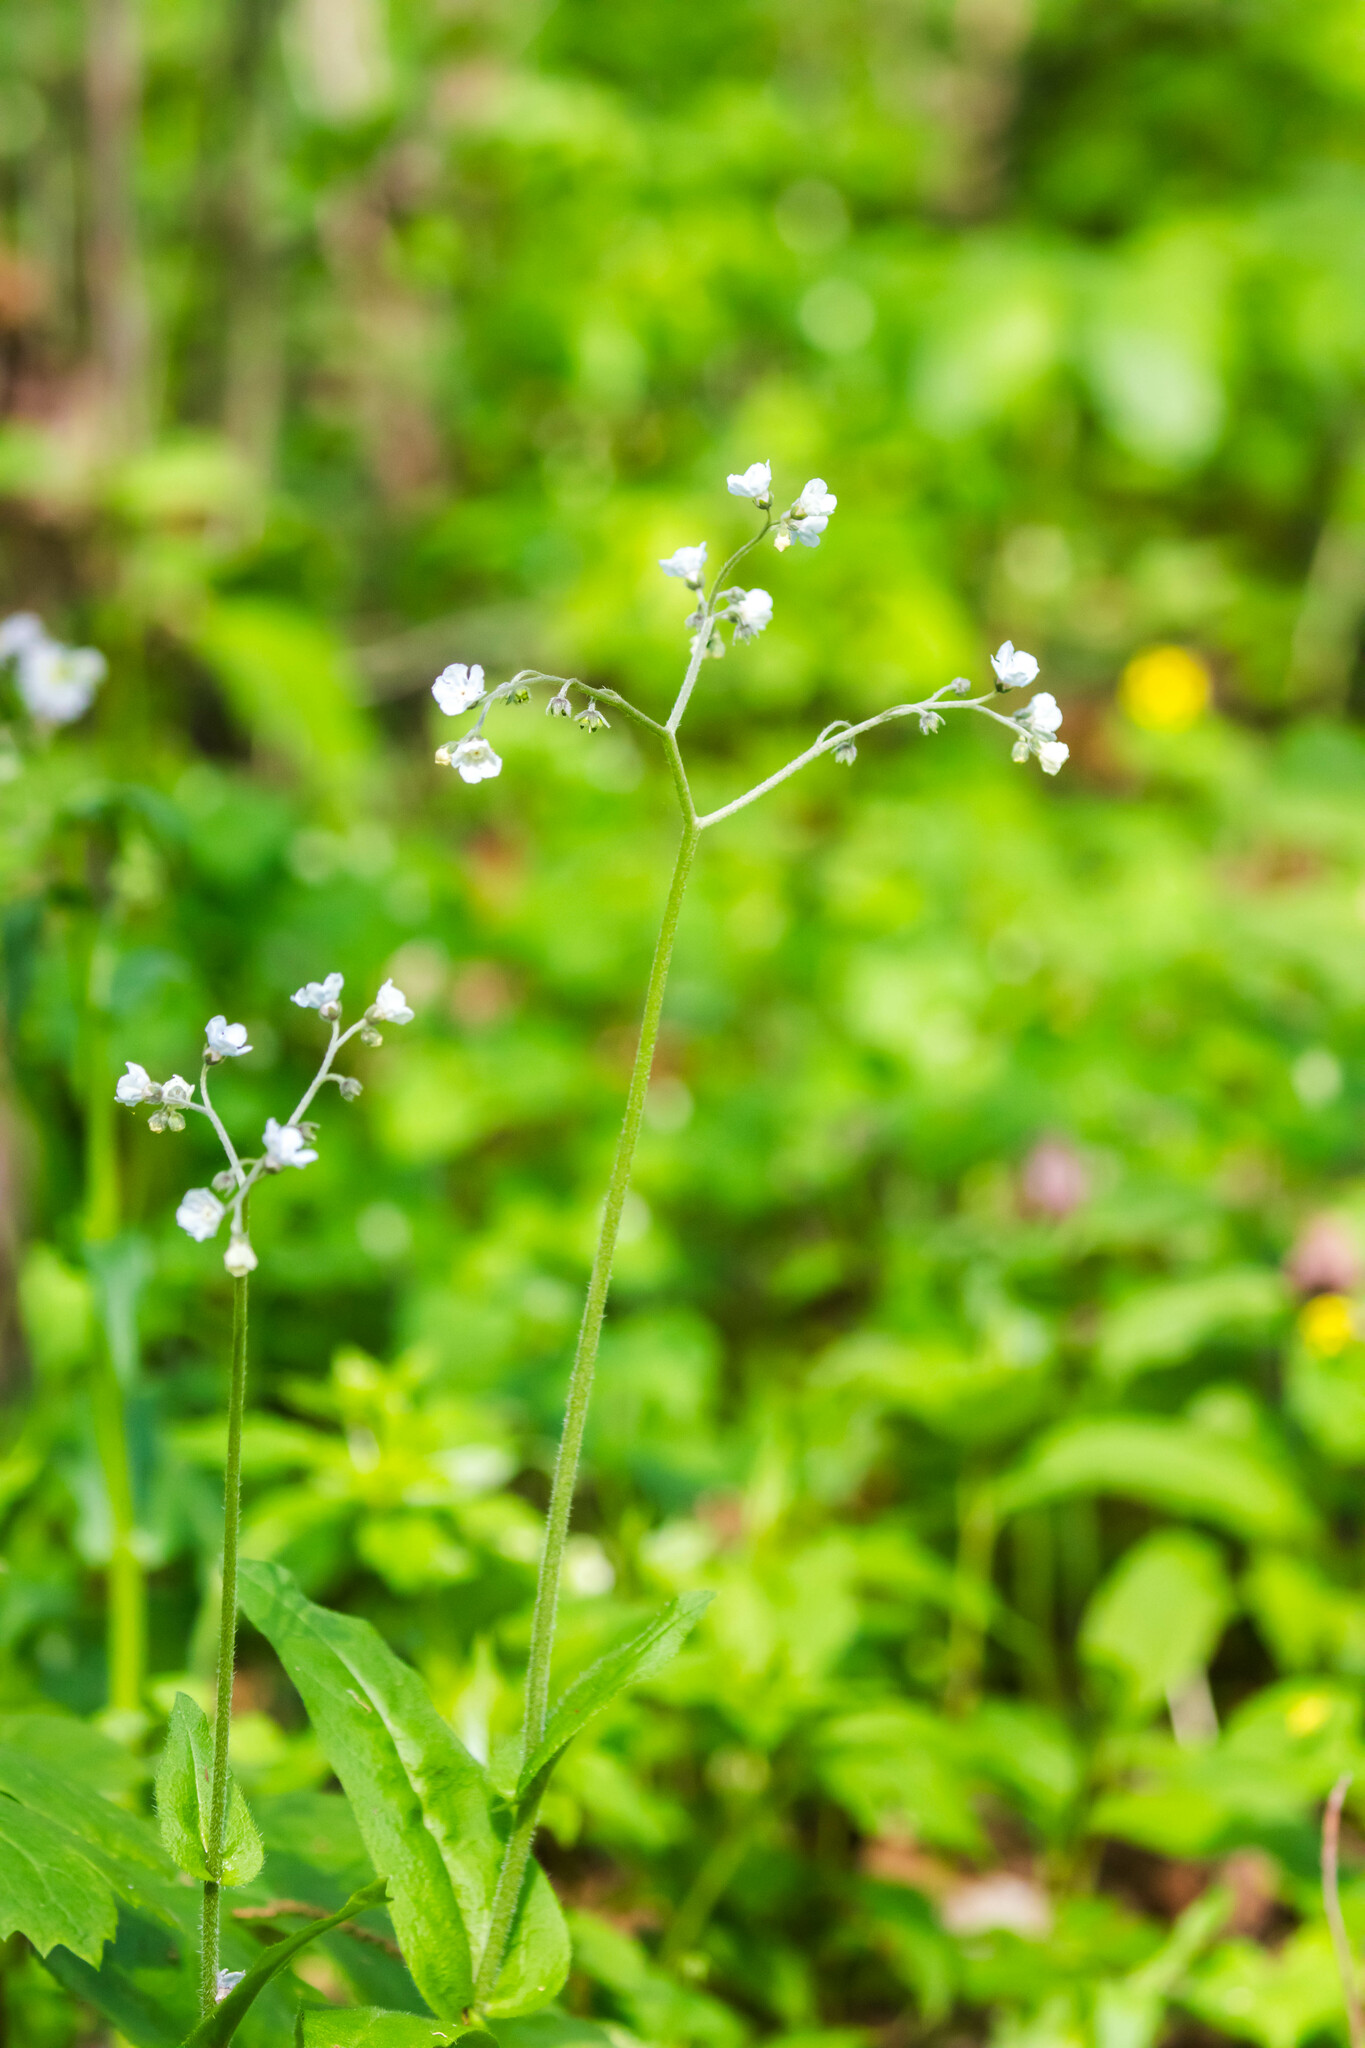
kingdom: Plantae
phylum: Tracheophyta
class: Magnoliopsida
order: Boraginales
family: Boraginaceae
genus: Andersonglossum
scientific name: Andersonglossum virginianum
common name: Wild comfrey
